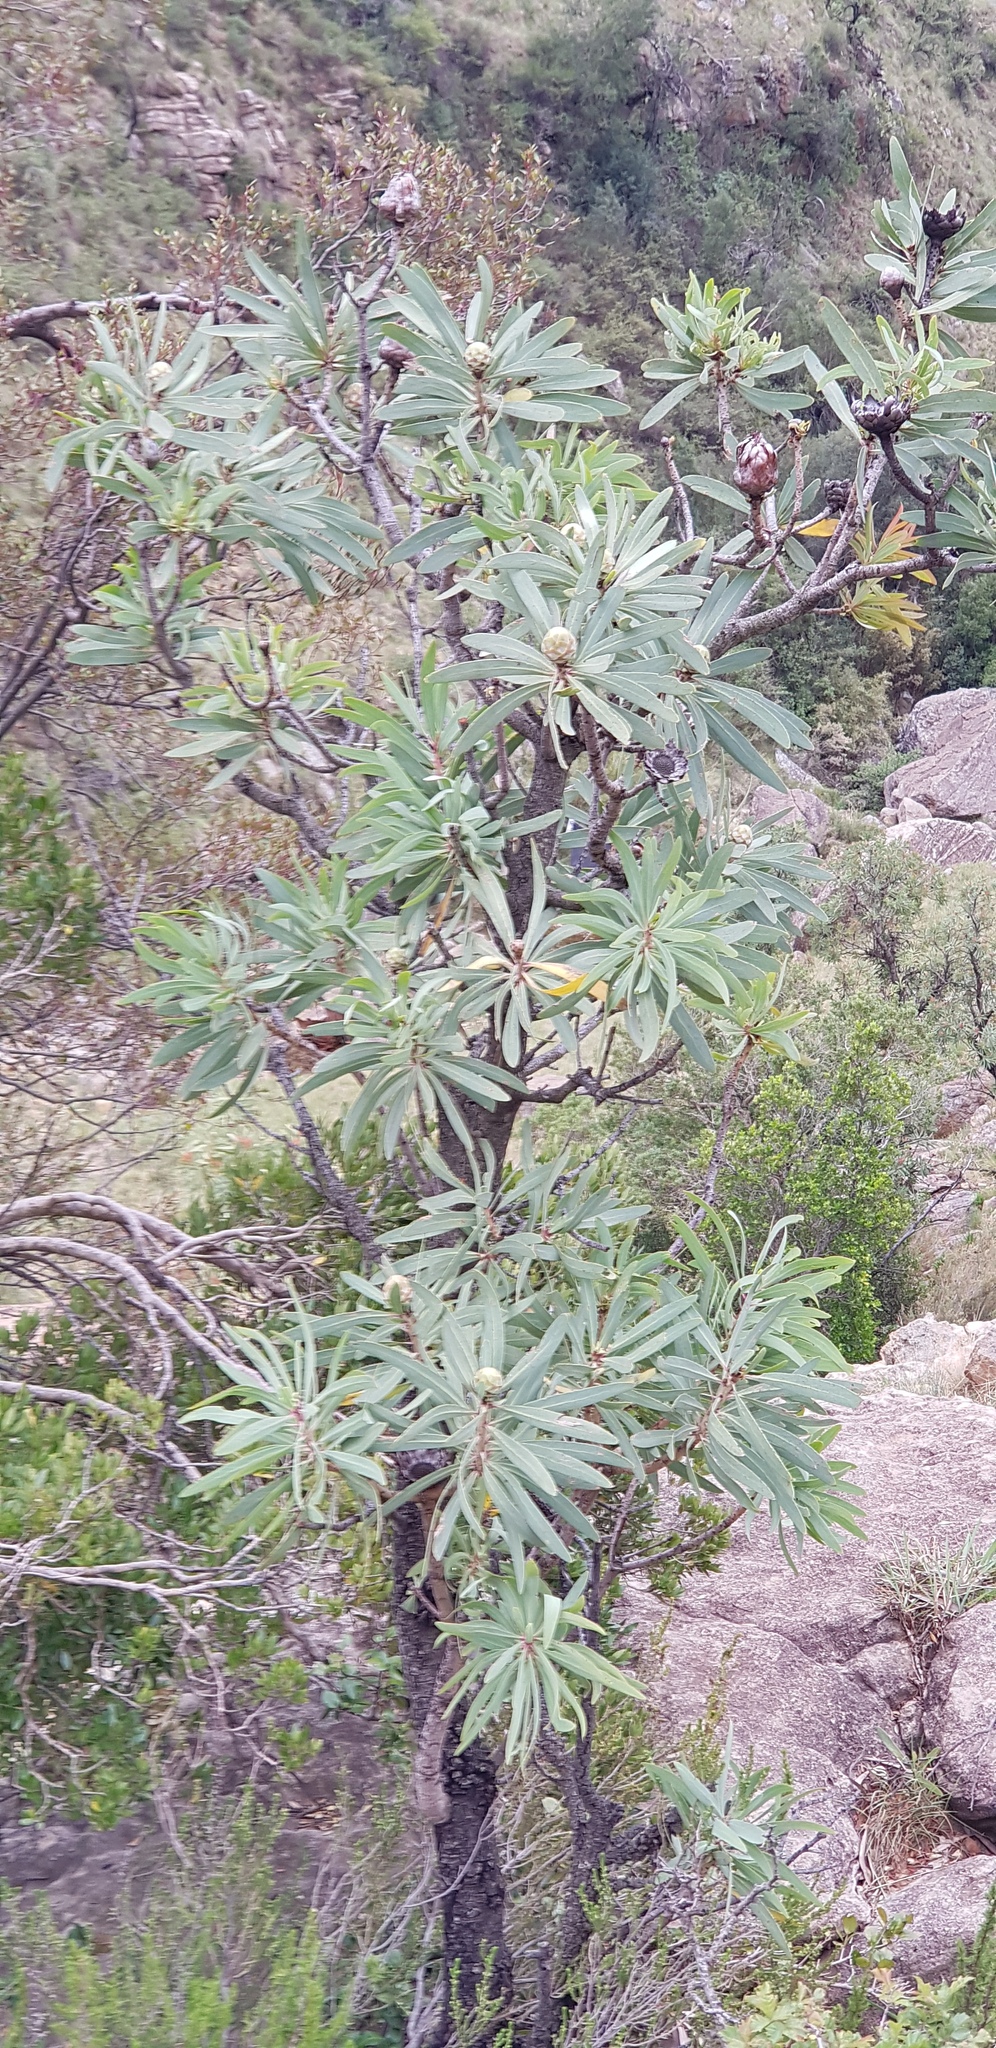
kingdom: Plantae
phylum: Tracheophyta
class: Magnoliopsida
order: Proteales
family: Proteaceae
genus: Protea
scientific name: Protea caffra
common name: Common sugarbush
